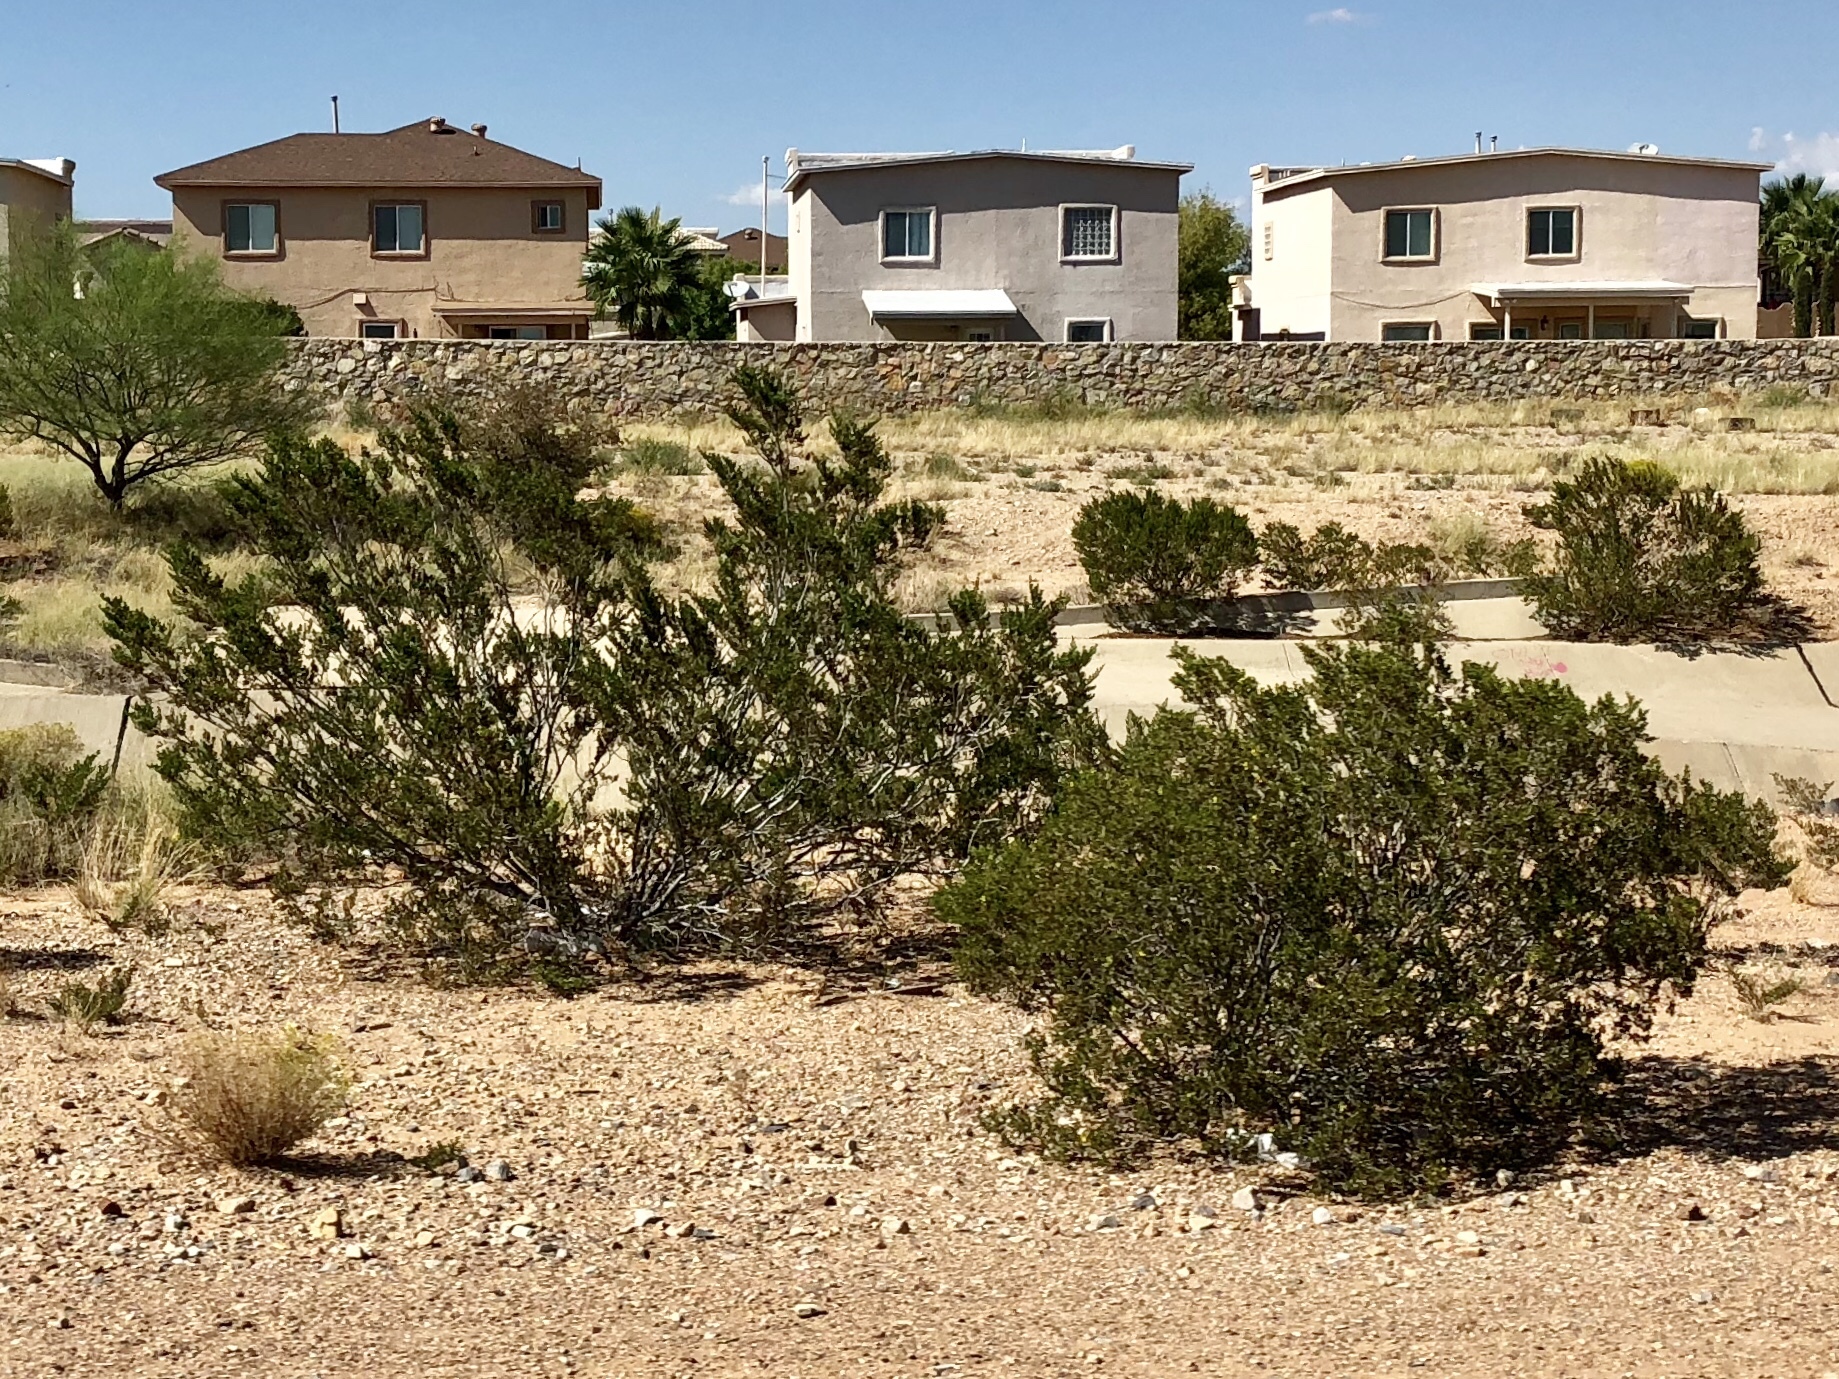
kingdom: Plantae
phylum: Tracheophyta
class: Magnoliopsida
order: Zygophyllales
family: Zygophyllaceae
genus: Larrea
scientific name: Larrea tridentata
